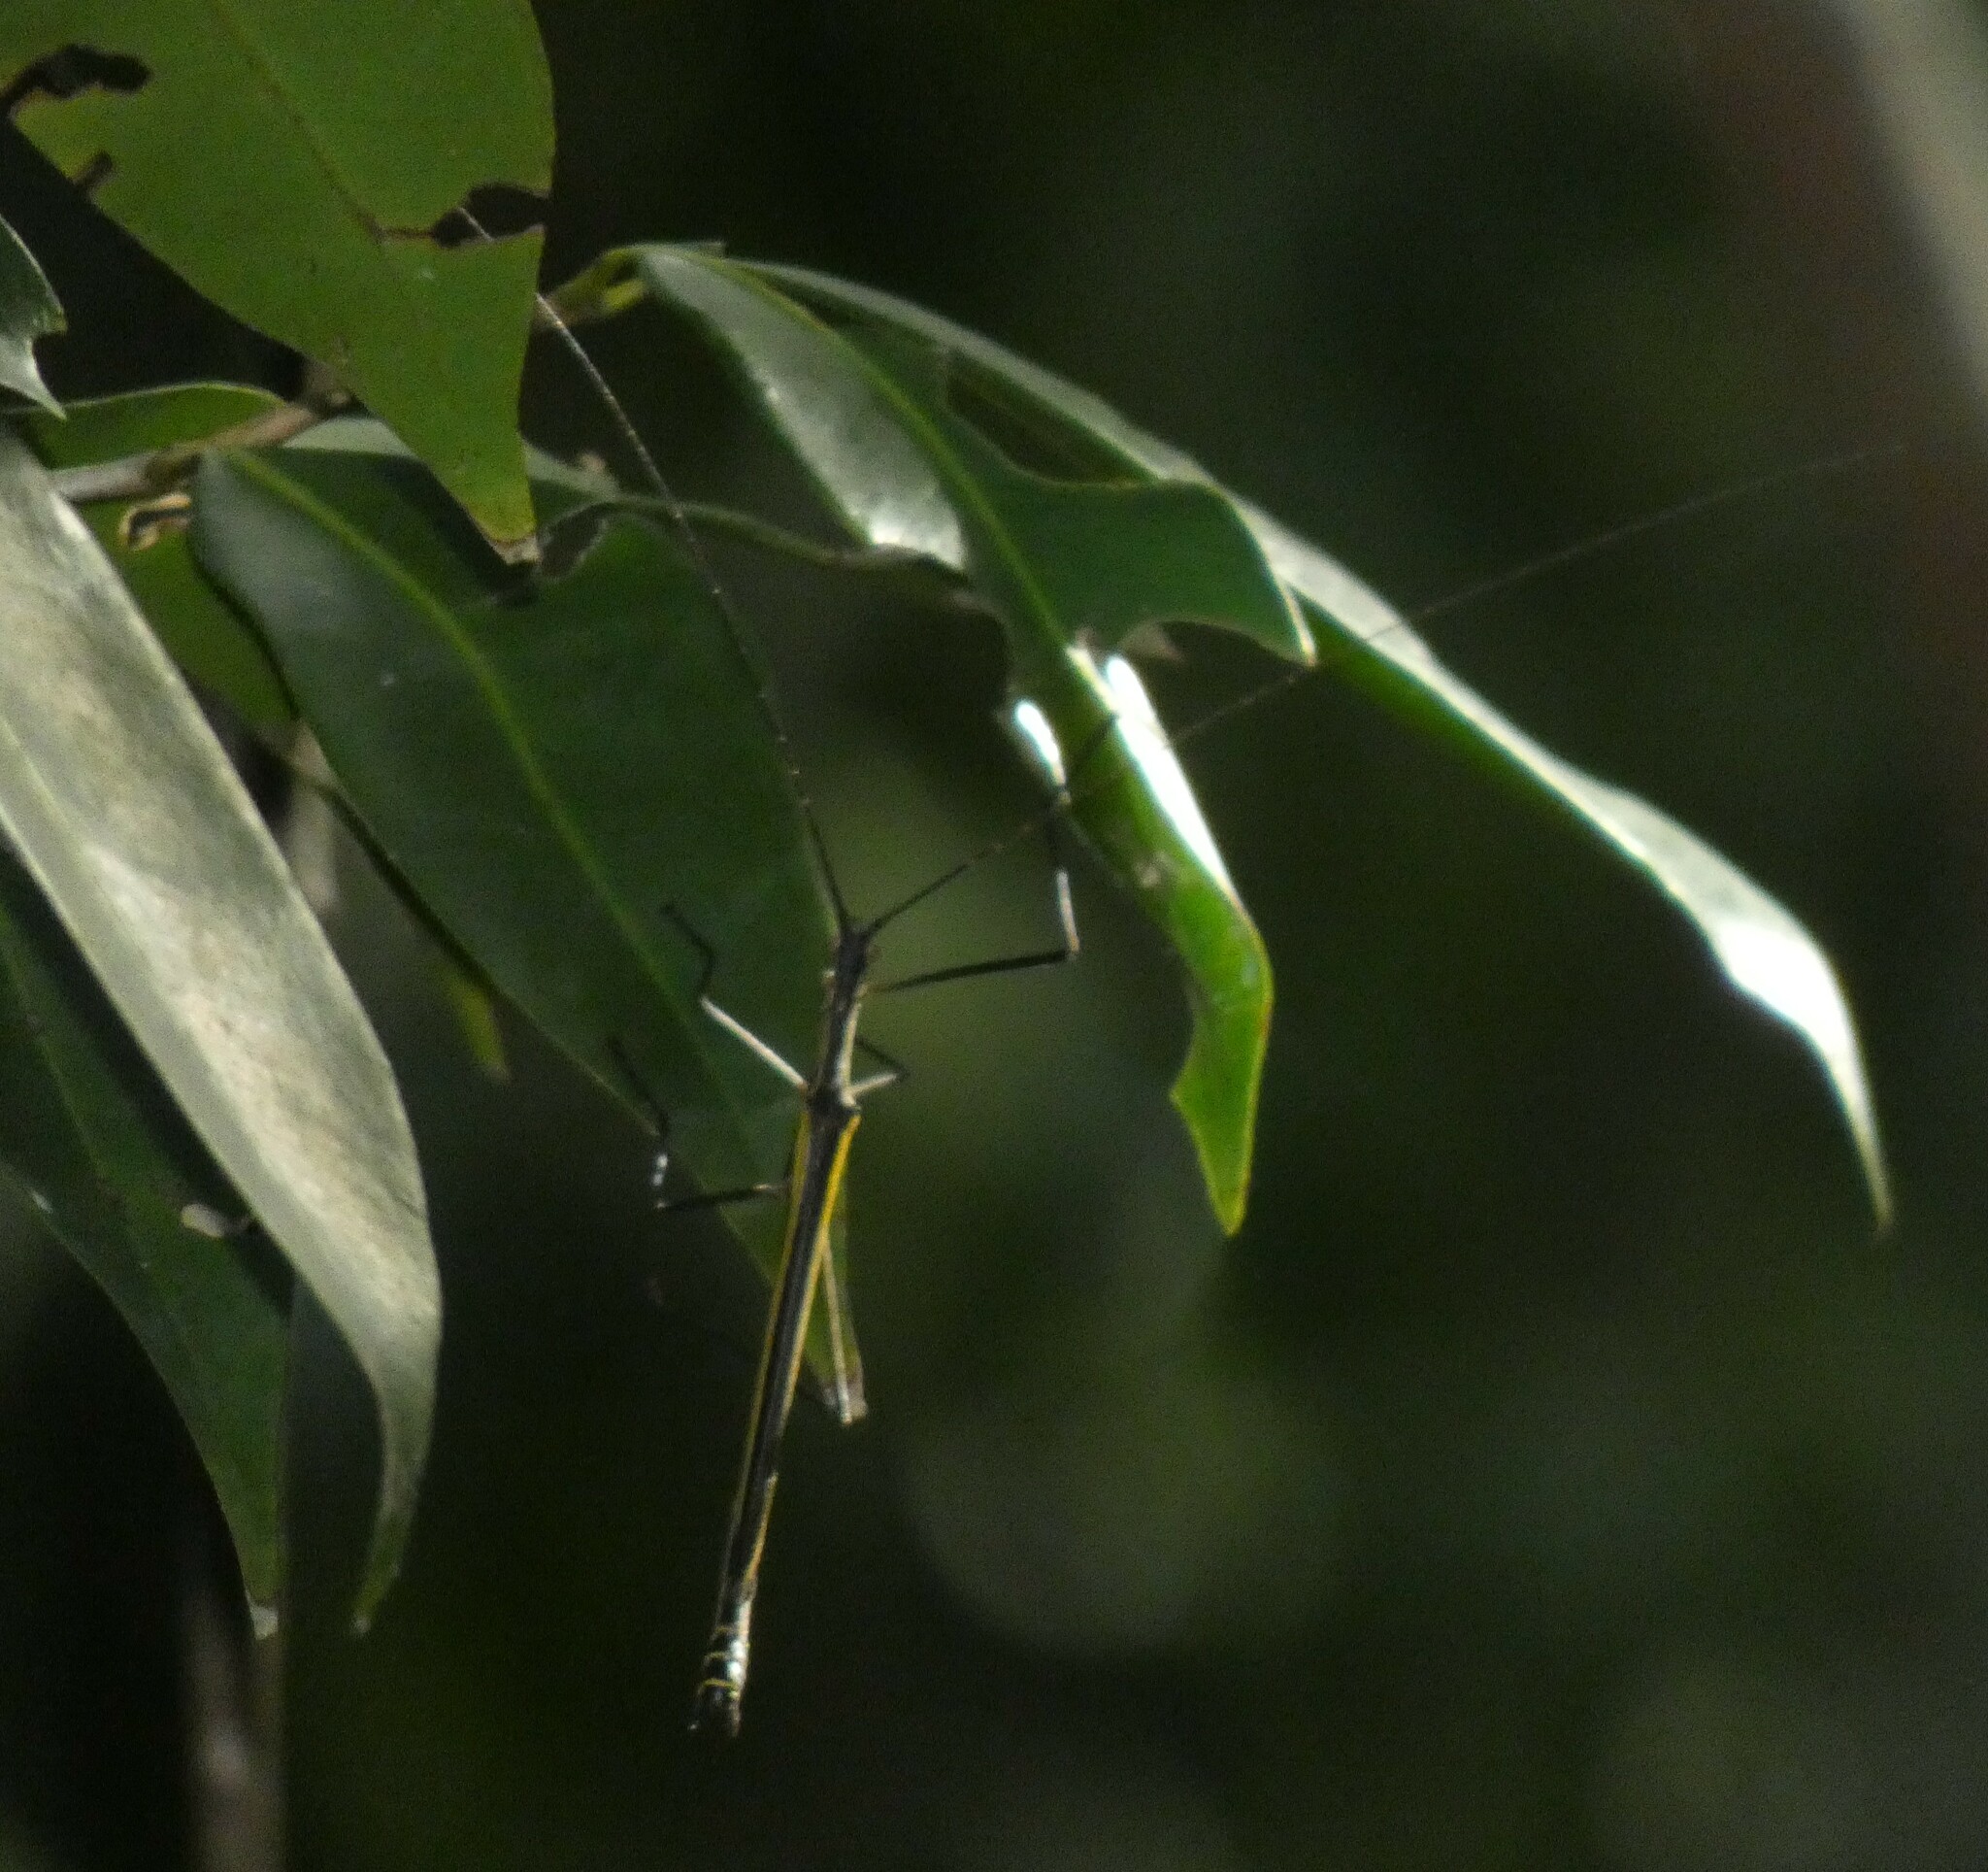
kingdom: Animalia
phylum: Arthropoda
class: Insecta
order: Phasmida
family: Pseudophasmatidae
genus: Paraphasma
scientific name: Paraphasma laterale
